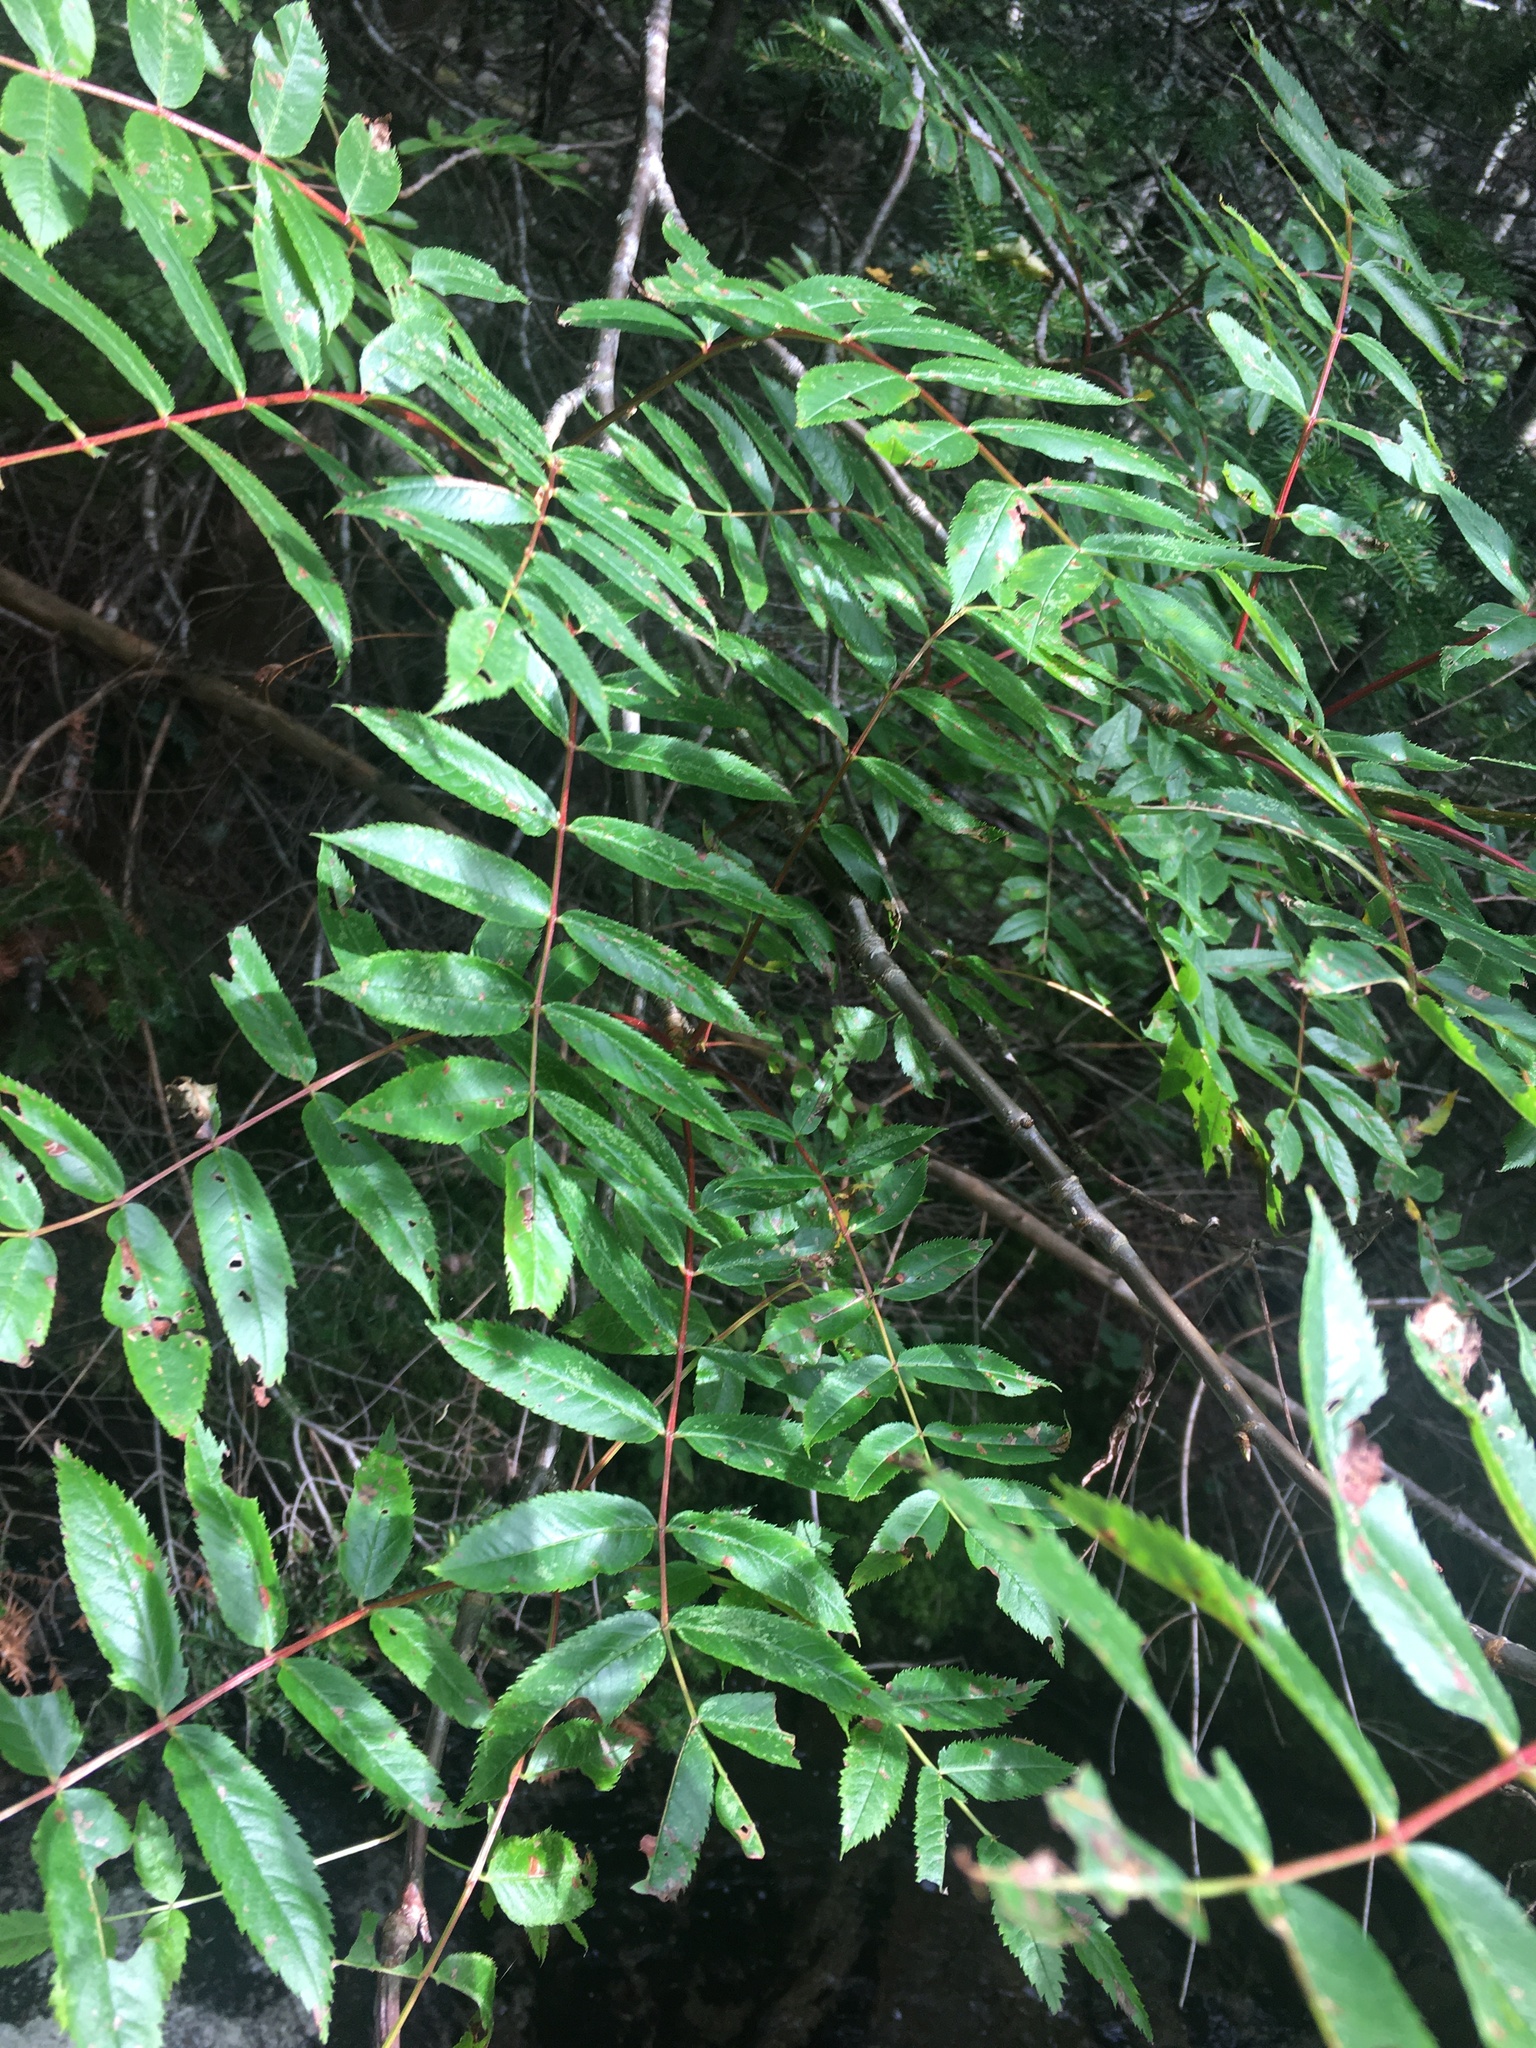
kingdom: Plantae
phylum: Tracheophyta
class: Magnoliopsida
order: Rosales
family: Rosaceae
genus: Sorbus
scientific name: Sorbus americana
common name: American mountain-ash
